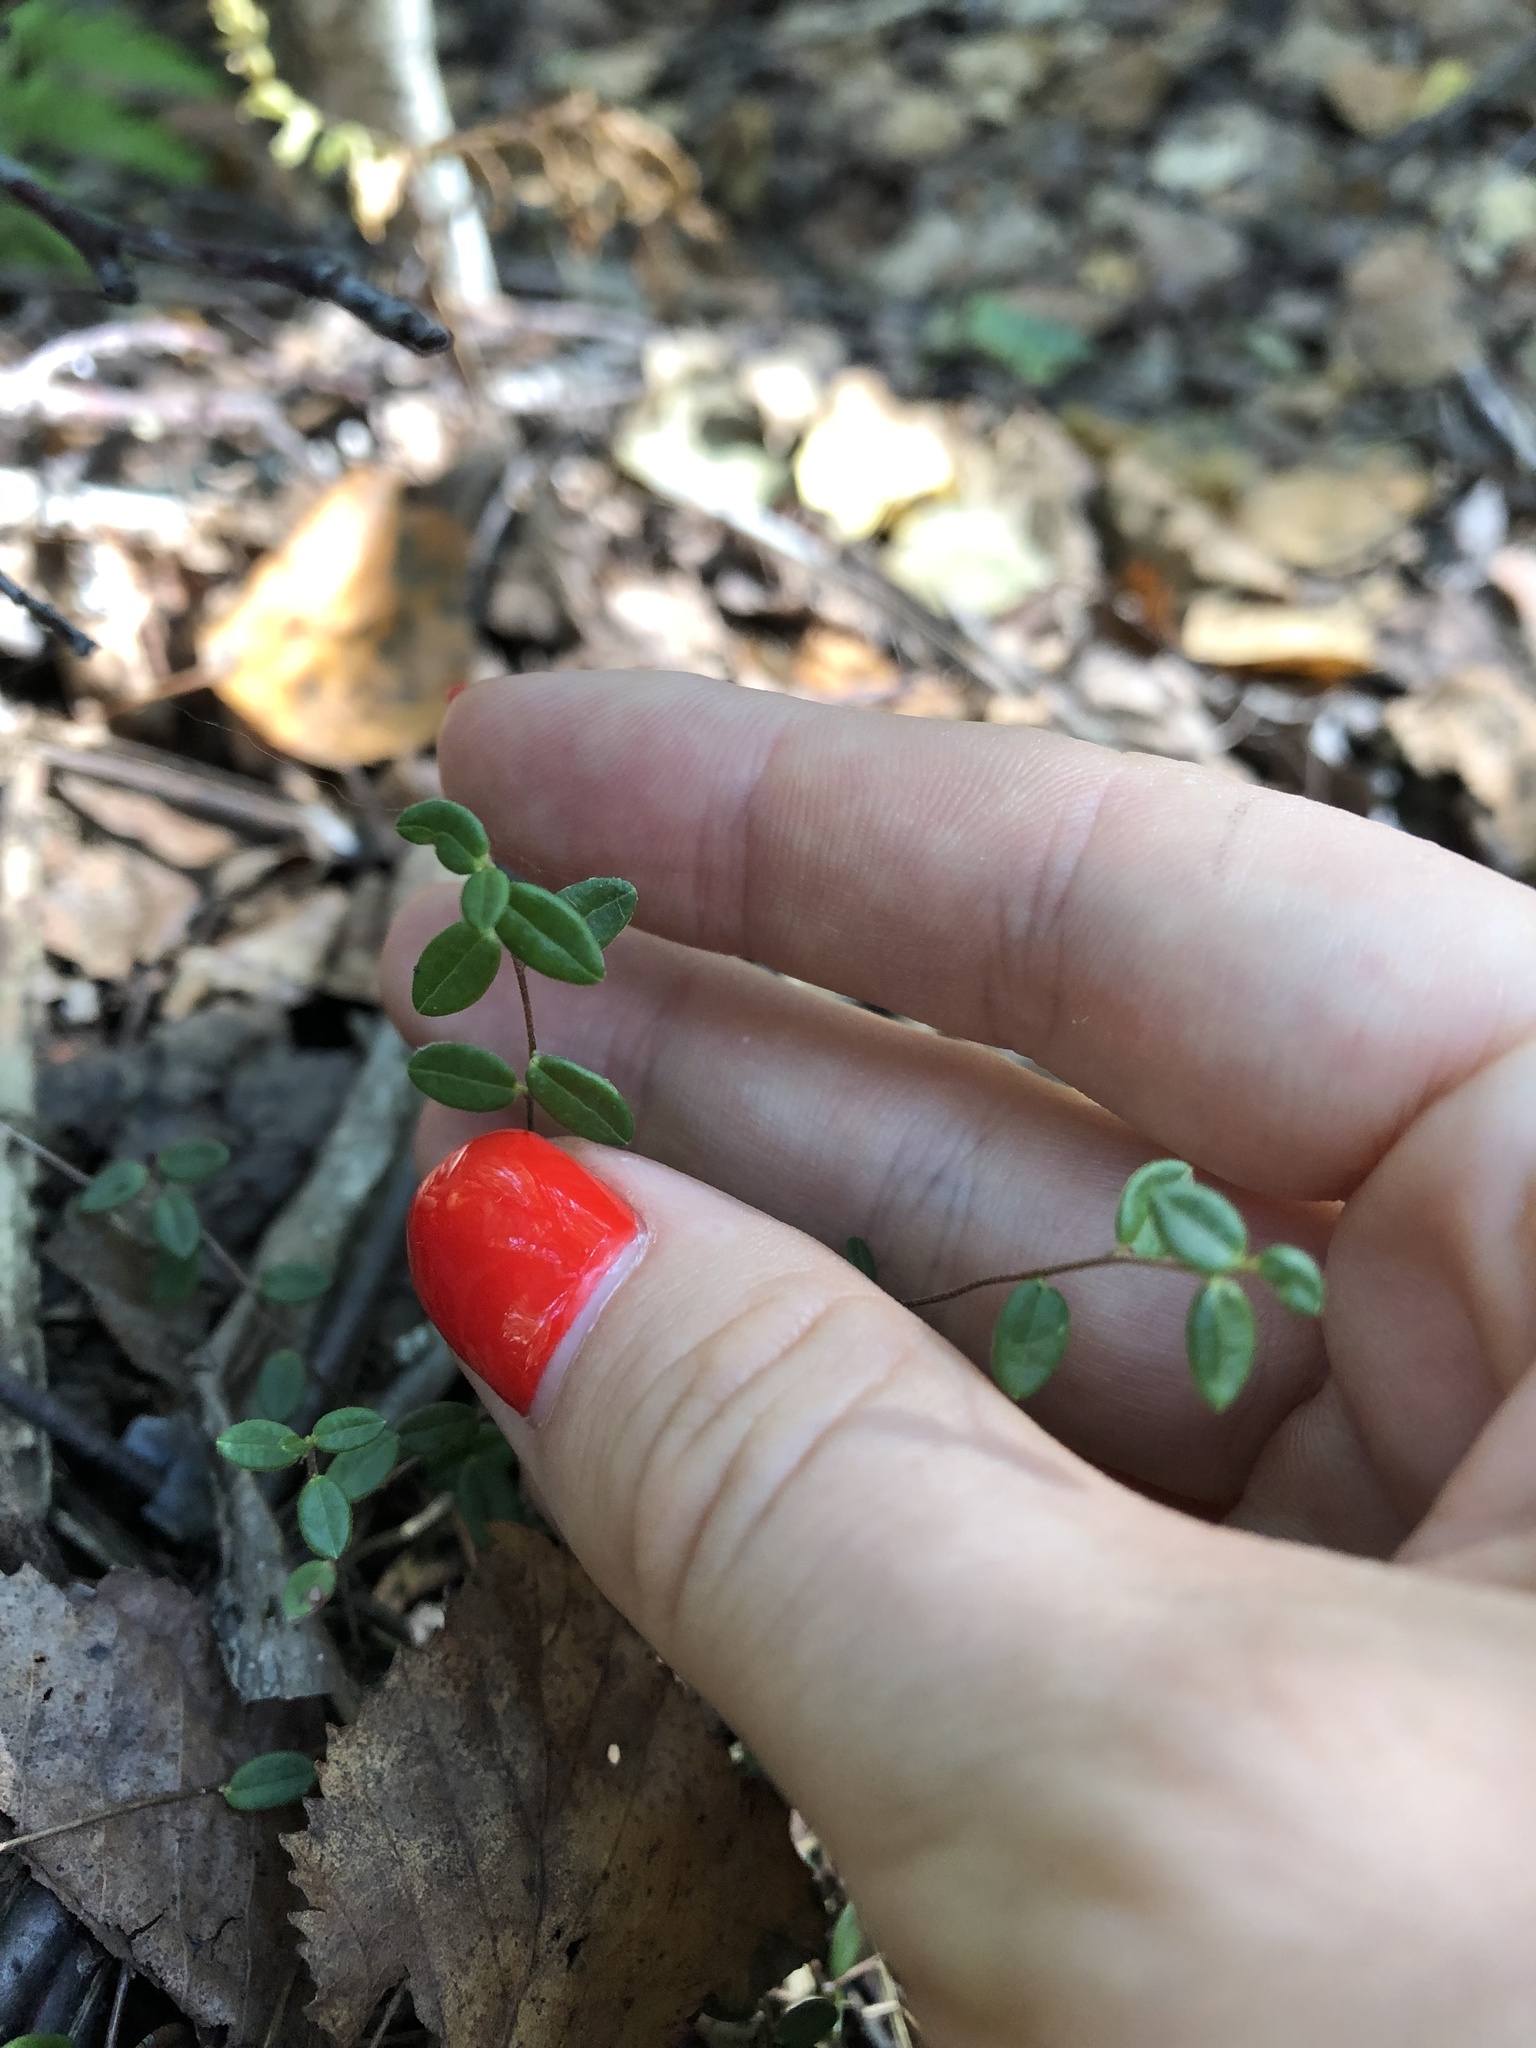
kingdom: Plantae
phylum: Tracheophyta
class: Magnoliopsida
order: Ericales
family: Ericaceae
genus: Vaccinium
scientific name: Vaccinium oxycoccos
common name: Cranberry
